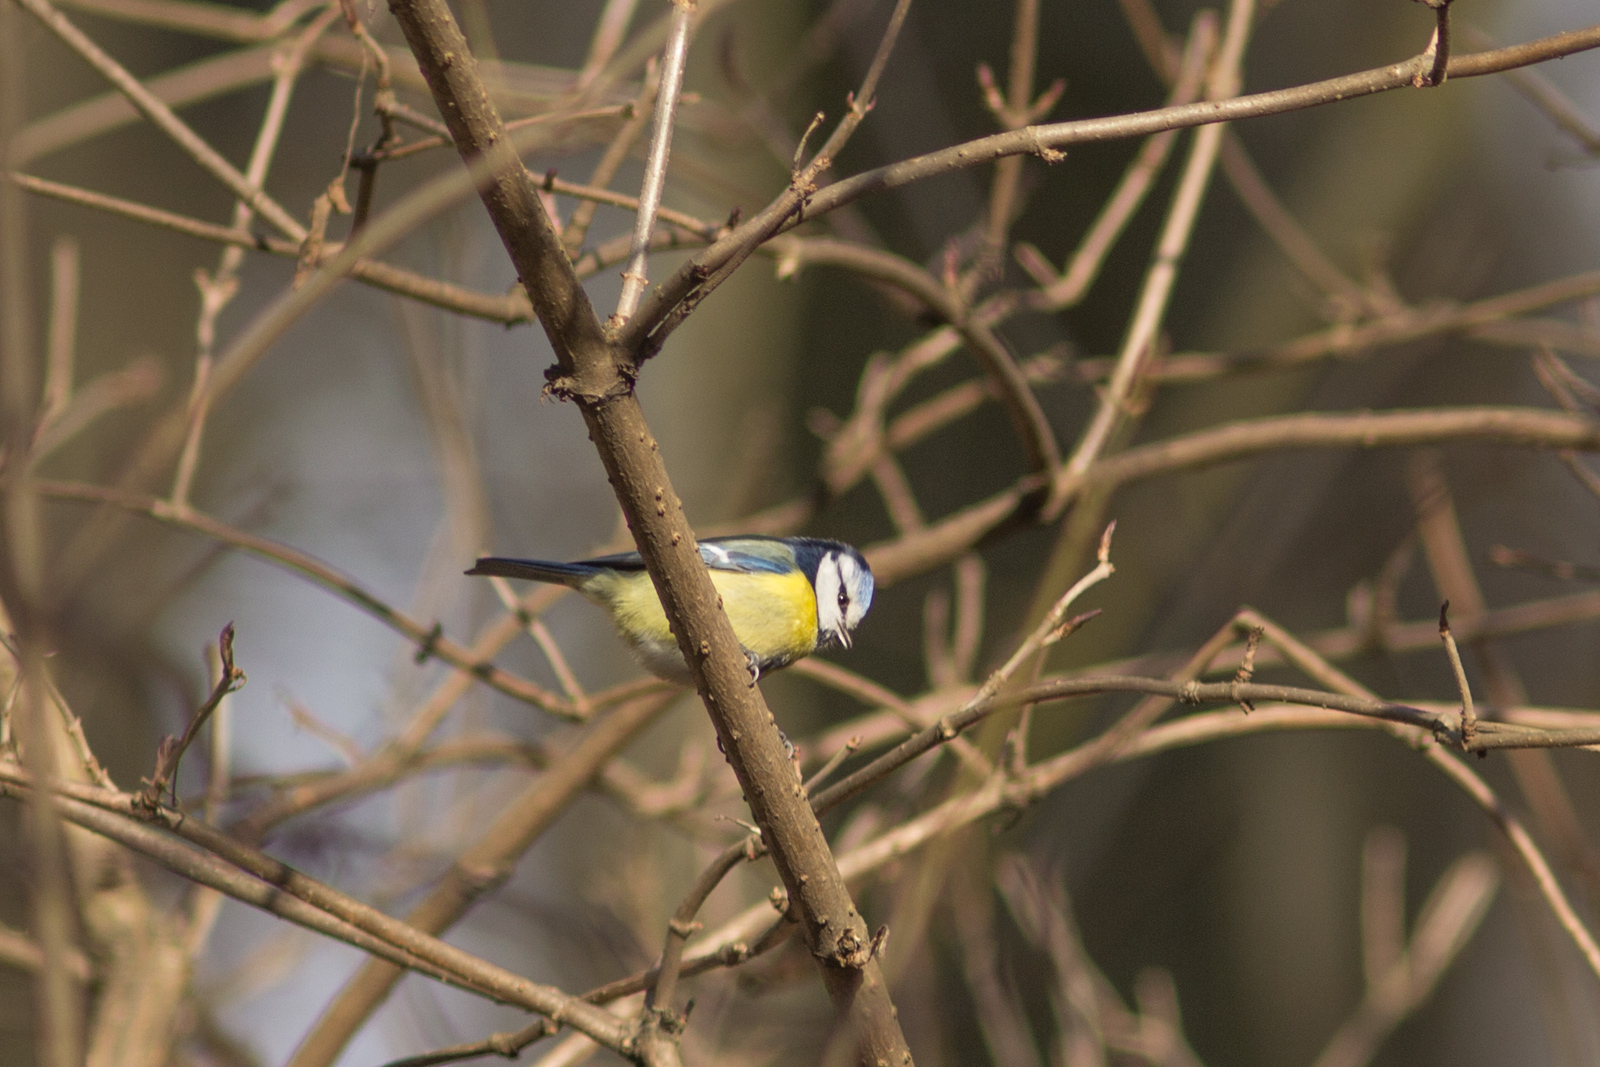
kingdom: Animalia
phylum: Chordata
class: Aves
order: Passeriformes
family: Paridae
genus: Cyanistes
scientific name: Cyanistes caeruleus
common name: Eurasian blue tit
